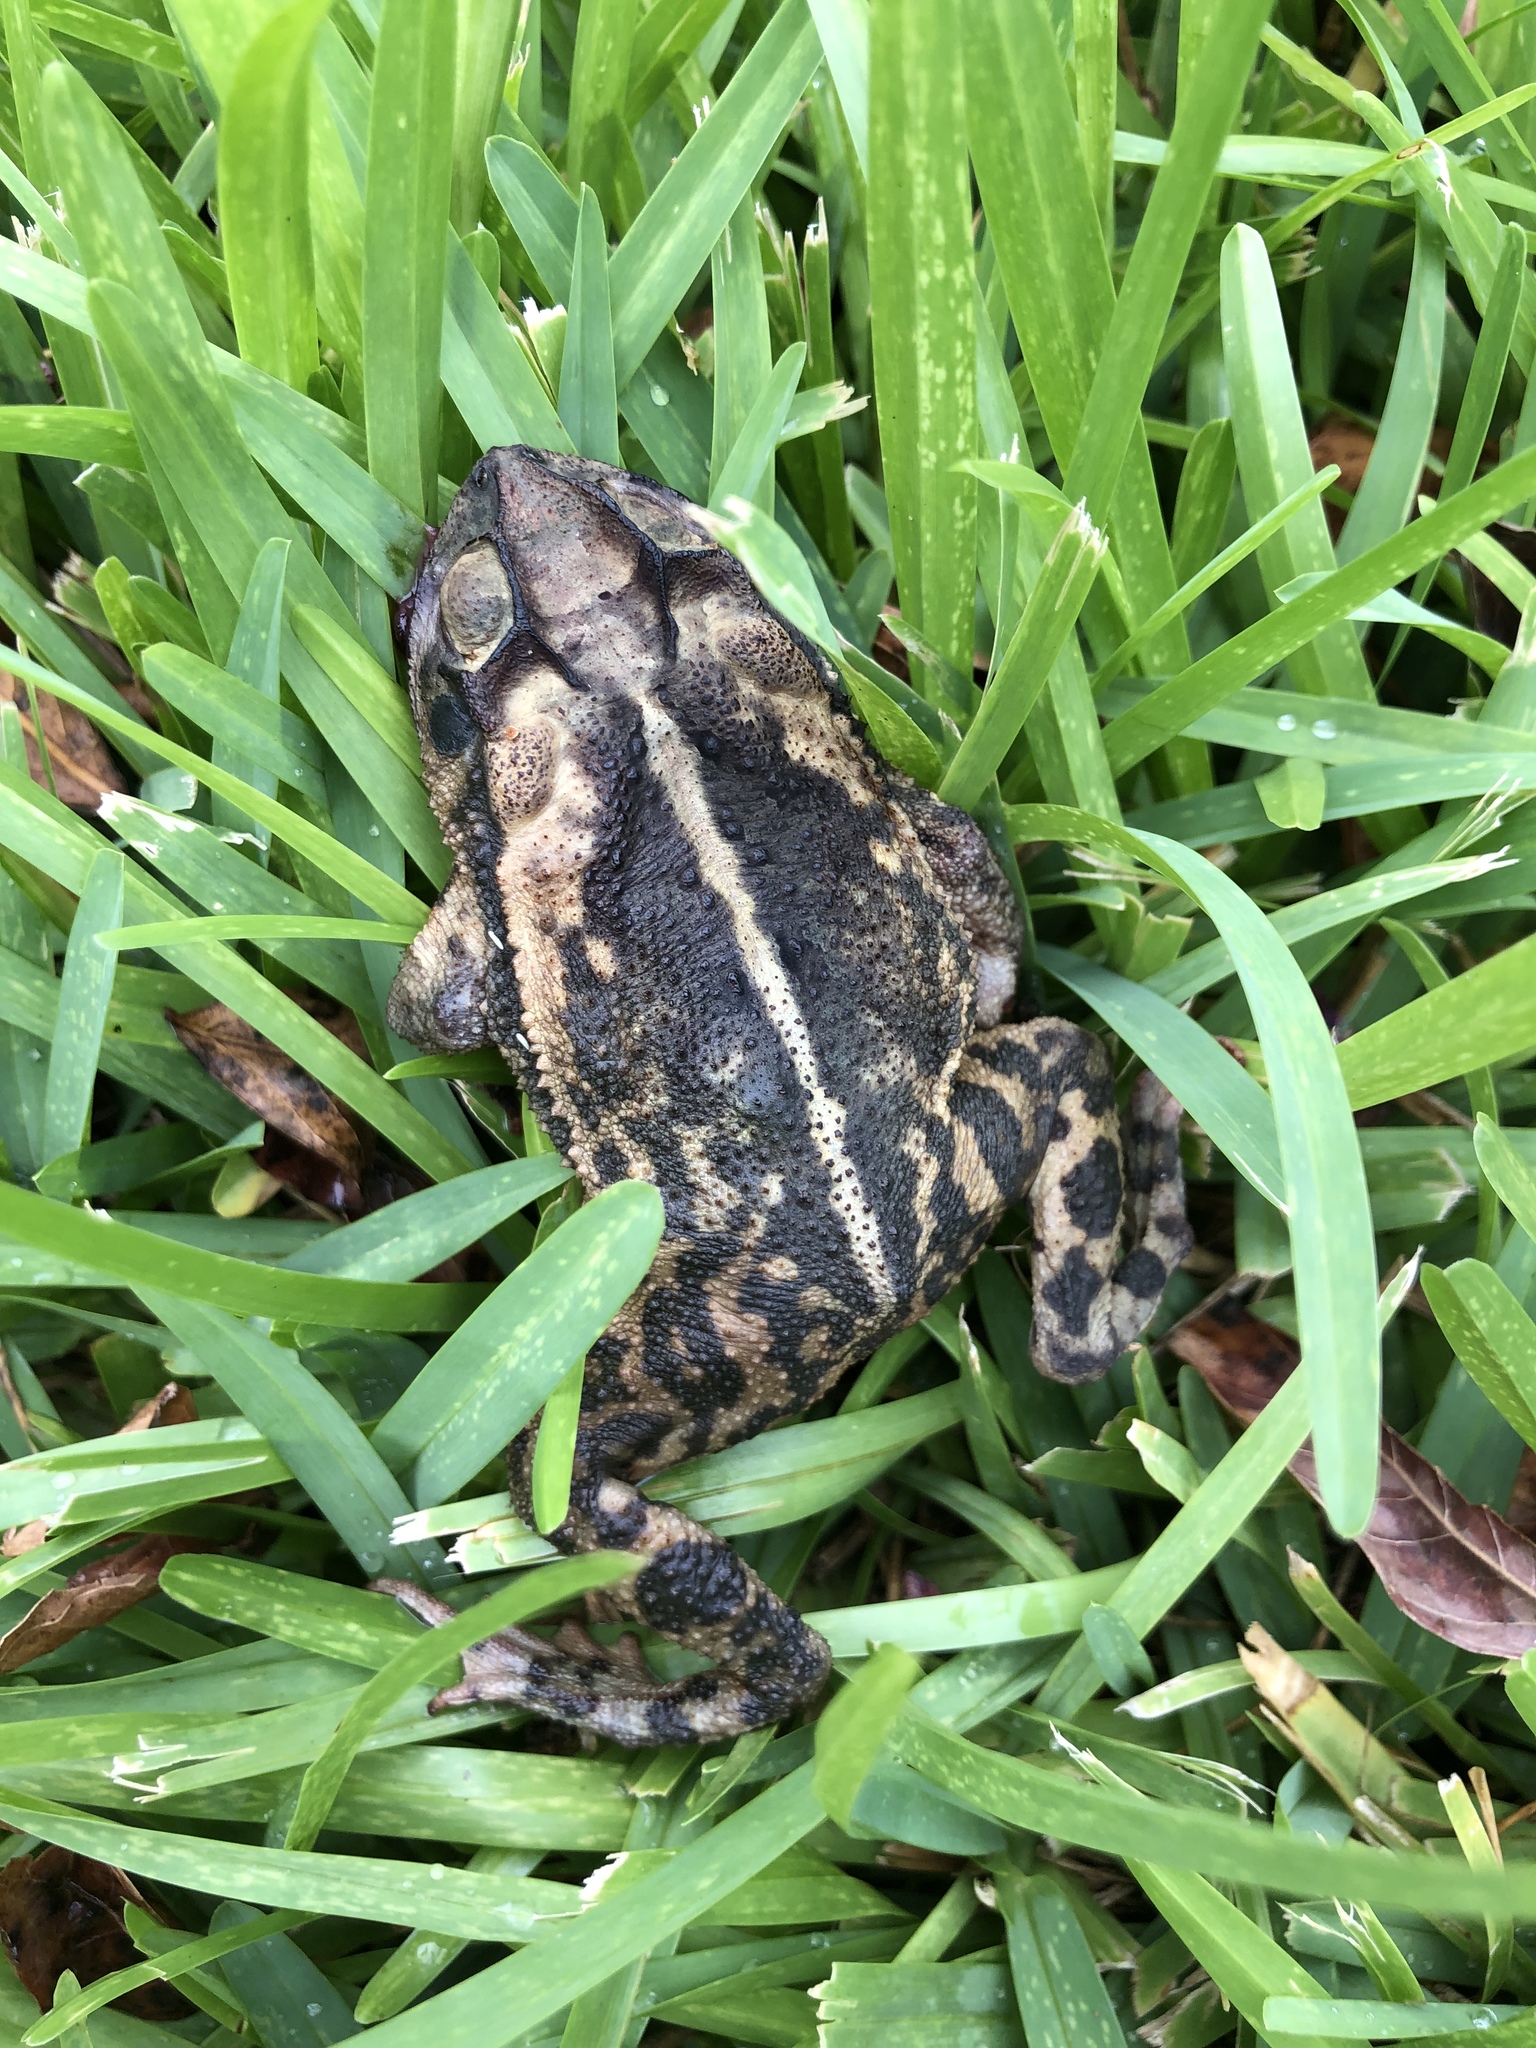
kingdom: Animalia
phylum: Chordata
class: Amphibia
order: Anura
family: Bufonidae
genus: Incilius
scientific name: Incilius nebulifer
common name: Gulf coast toad
